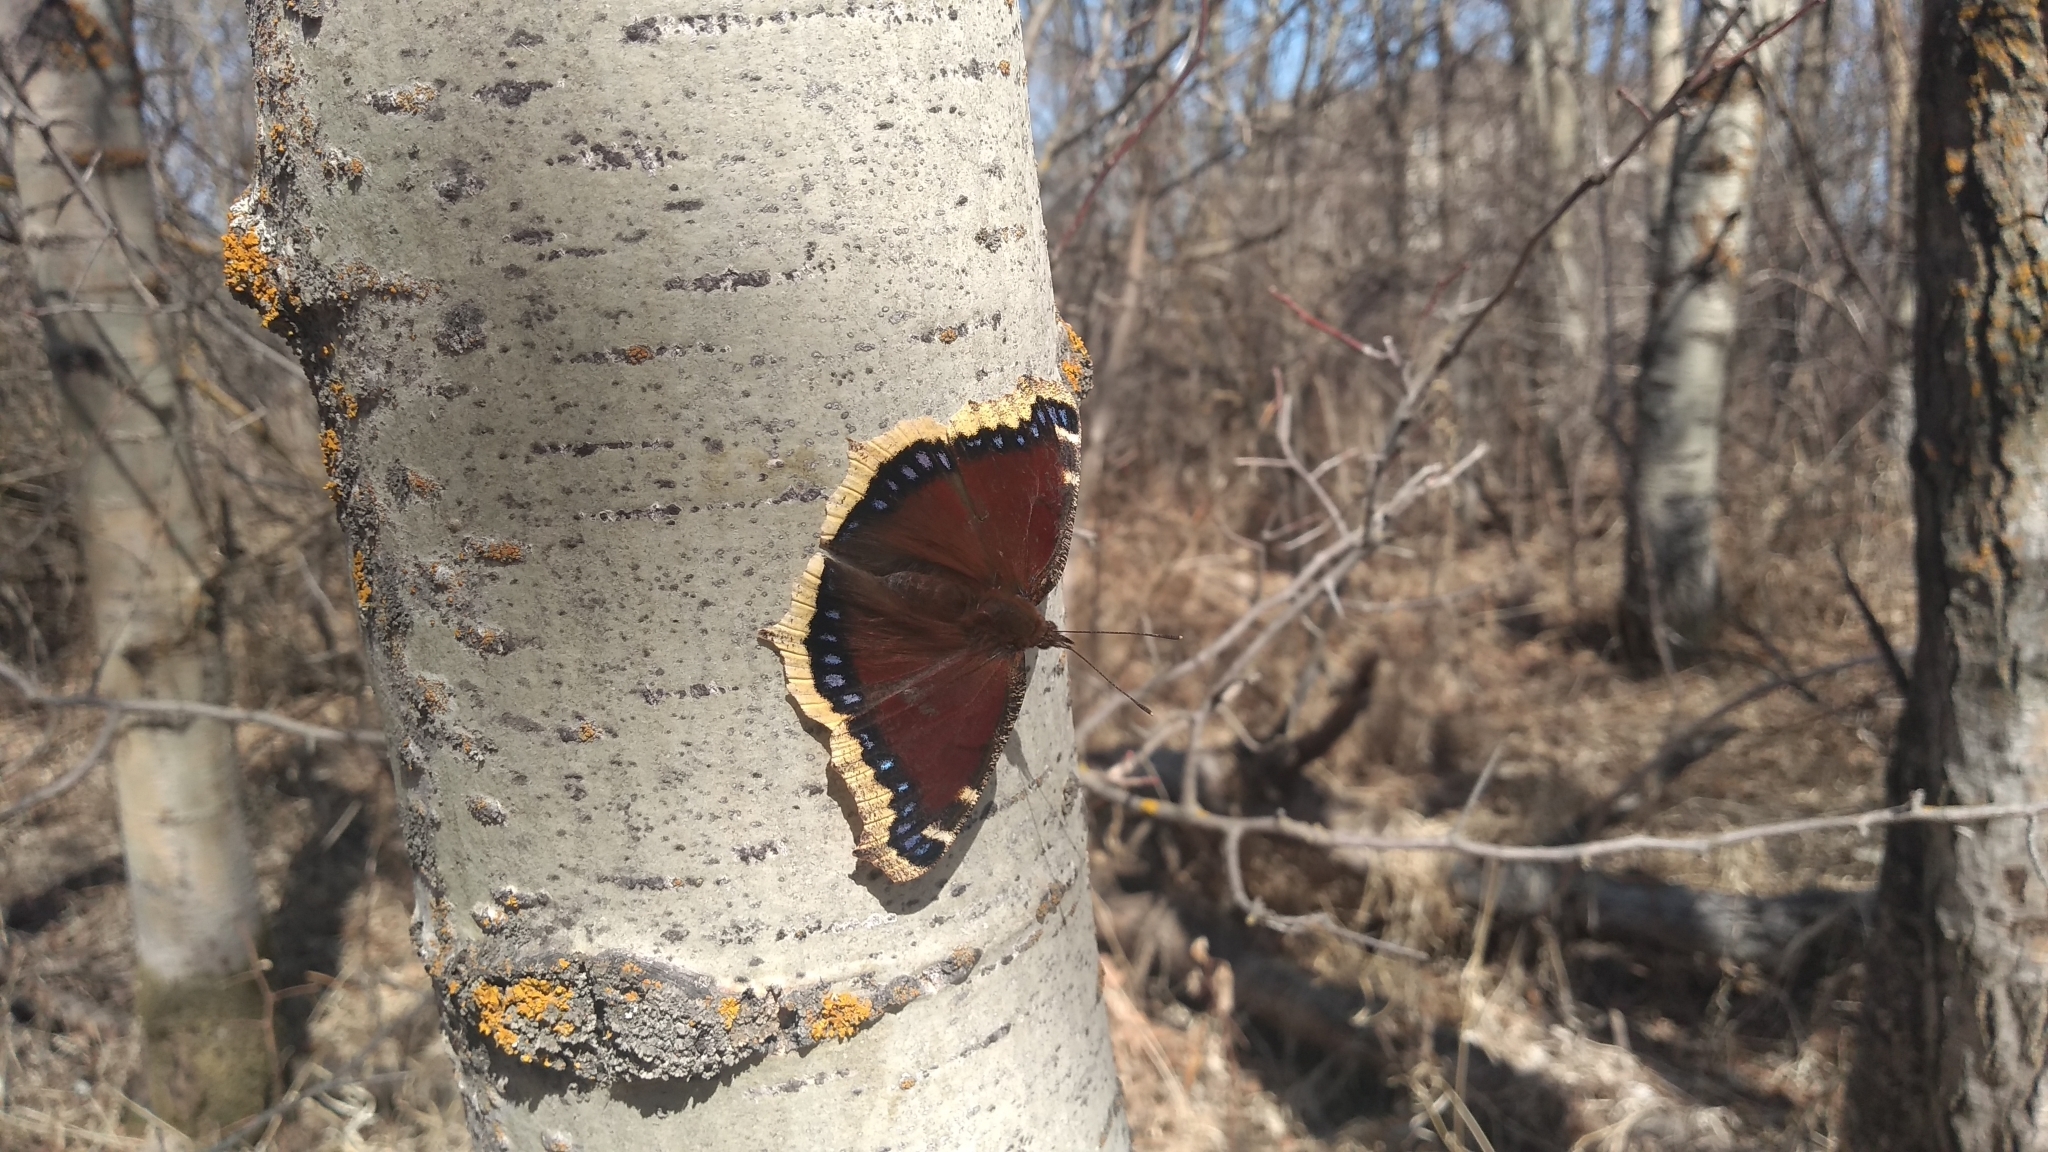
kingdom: Animalia
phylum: Arthropoda
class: Insecta
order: Lepidoptera
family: Nymphalidae
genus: Nymphalis
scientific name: Nymphalis antiopa
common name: Camberwell beauty
